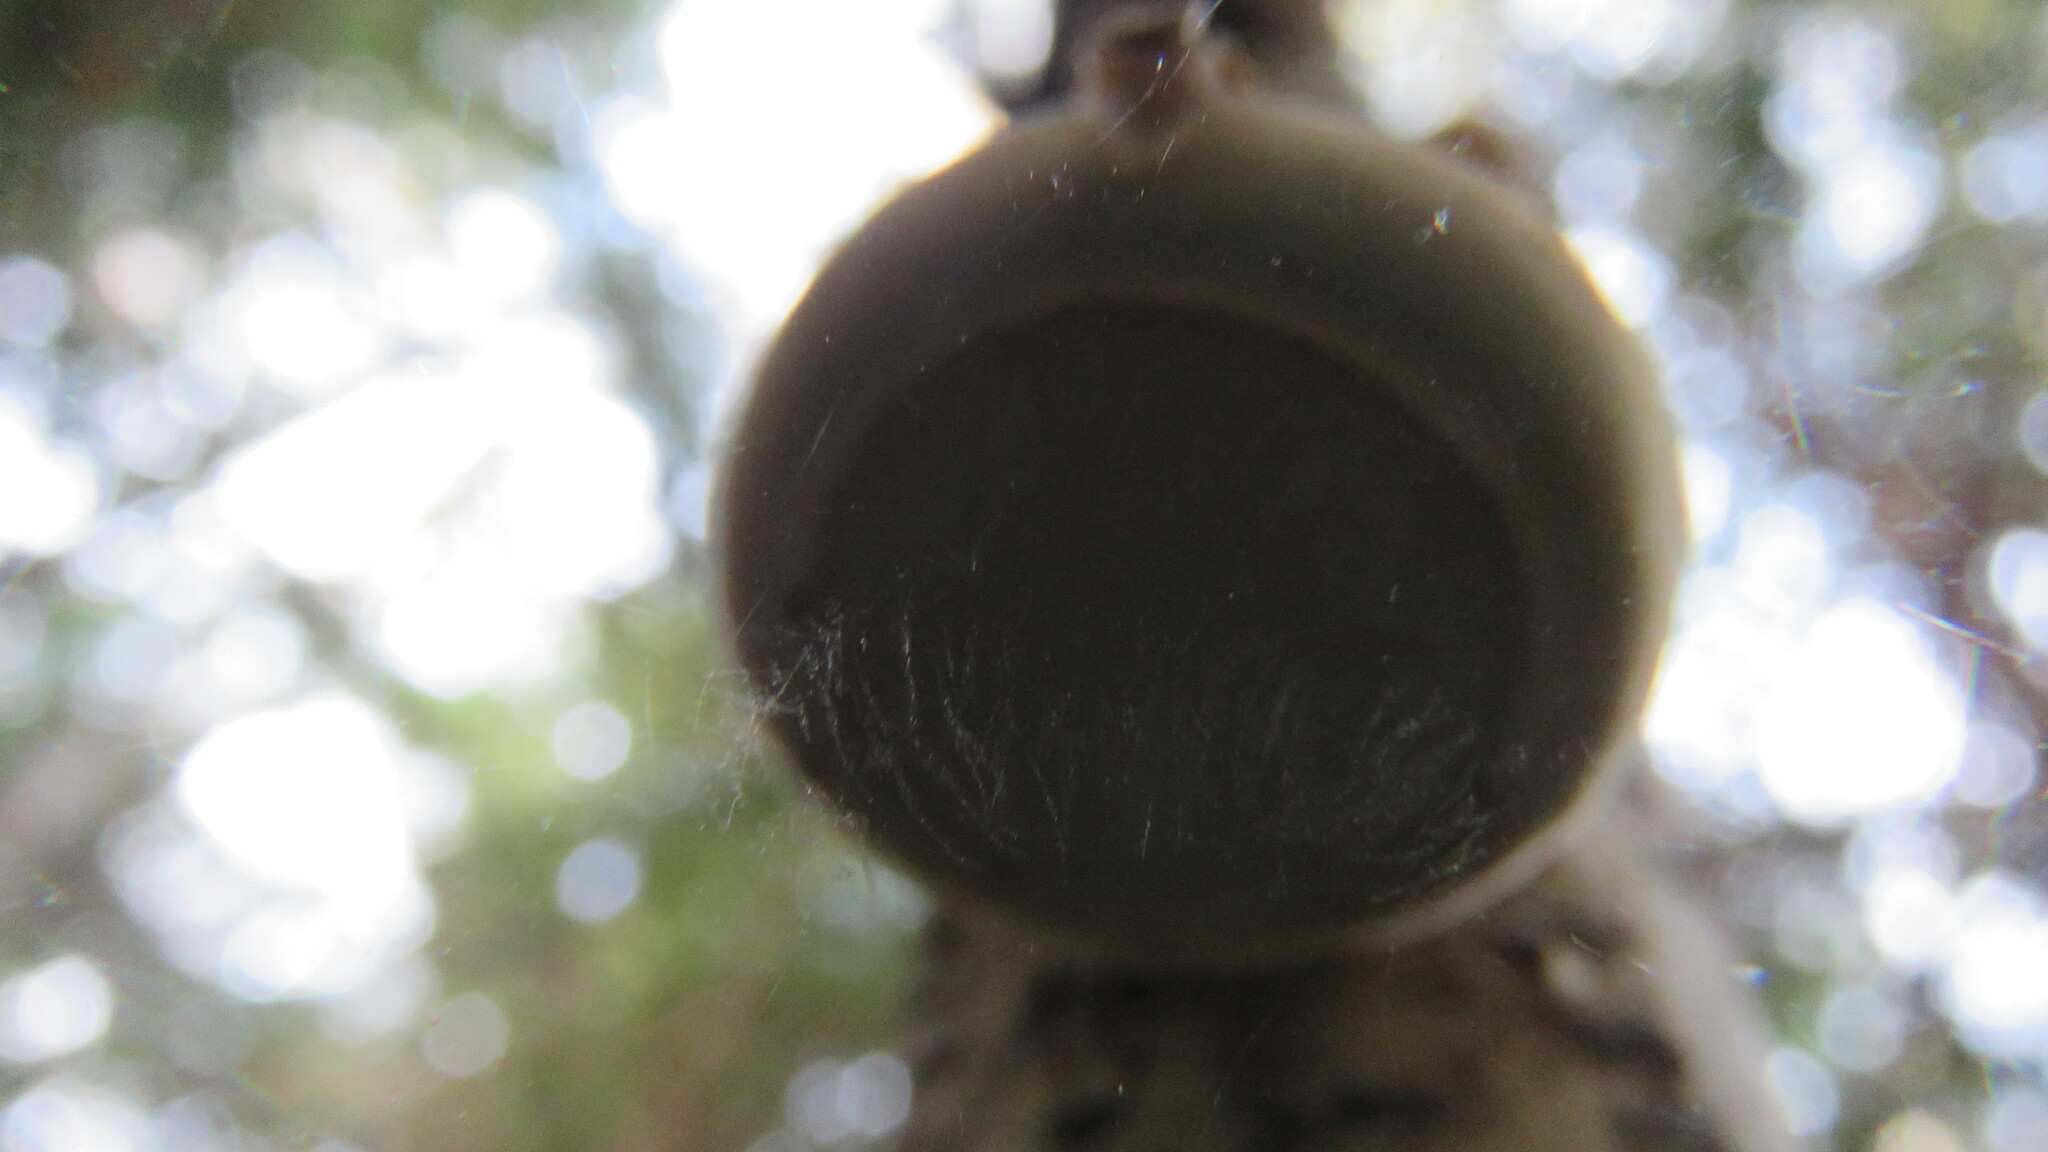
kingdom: Fungi
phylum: Basidiomycota
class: Agaricomycetes
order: Polyporales
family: Fomitopsidaceae
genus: Fomitopsis
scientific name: Fomitopsis betulina
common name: Birch polypore
